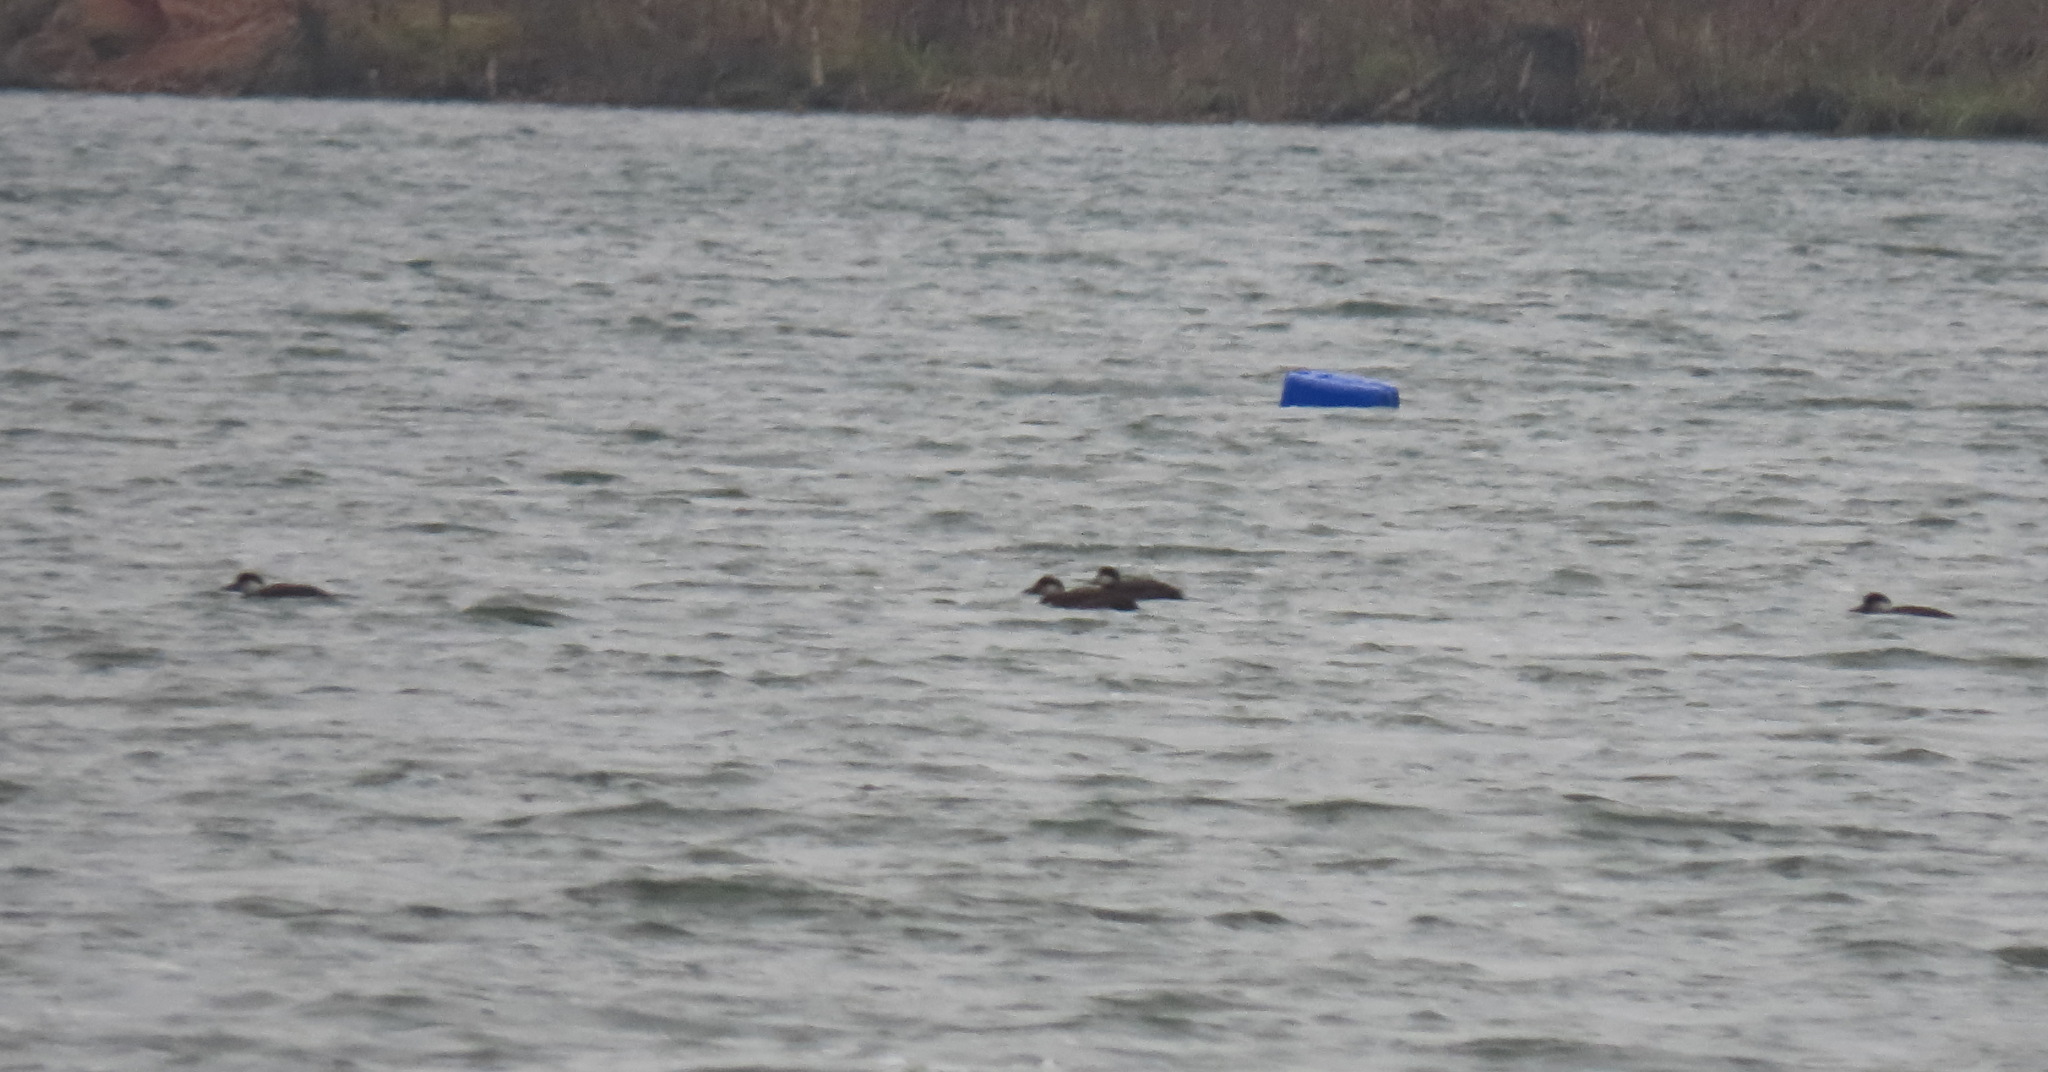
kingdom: Animalia
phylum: Chordata
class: Aves
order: Anseriformes
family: Anatidae
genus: Melanitta
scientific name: Melanitta nigra
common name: Common scoter
